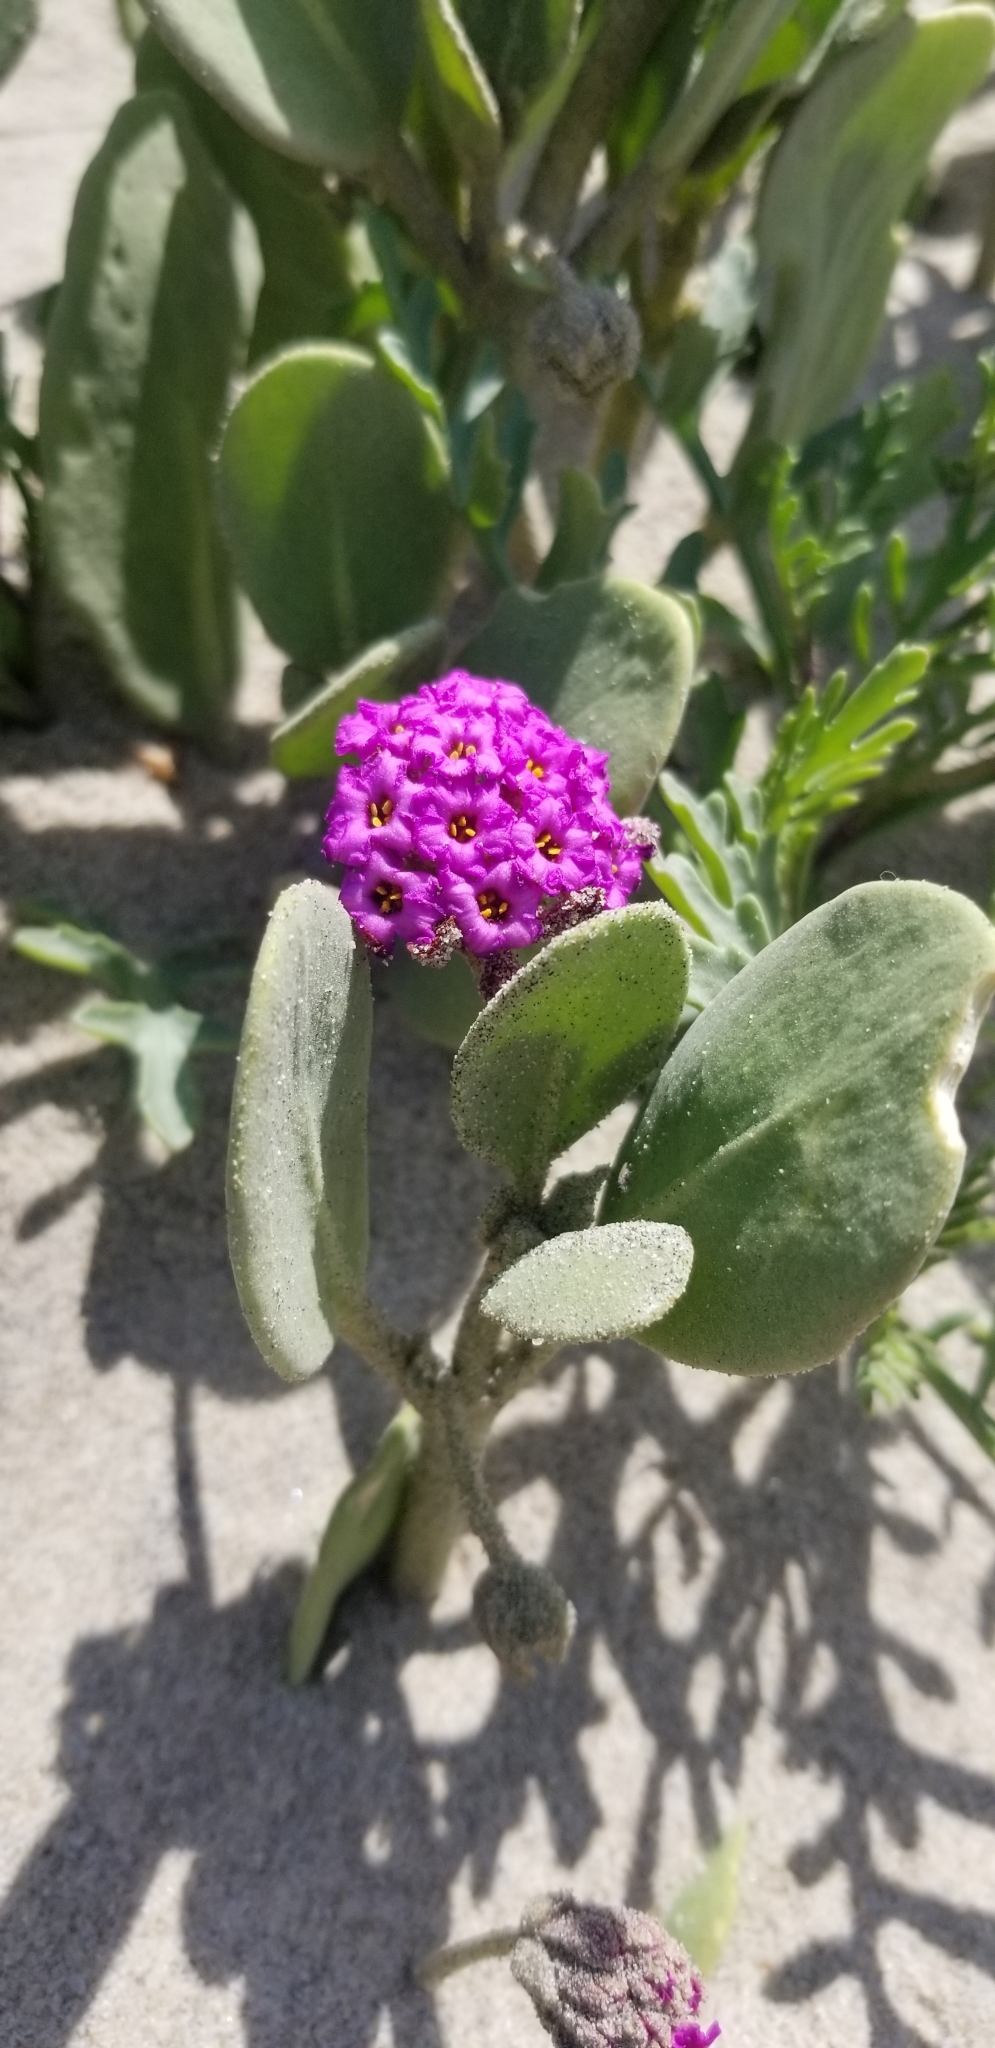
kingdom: Plantae
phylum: Tracheophyta
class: Magnoliopsida
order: Caryophyllales
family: Nyctaginaceae
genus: Abronia
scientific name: Abronia maritima
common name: Red sand-verbena
